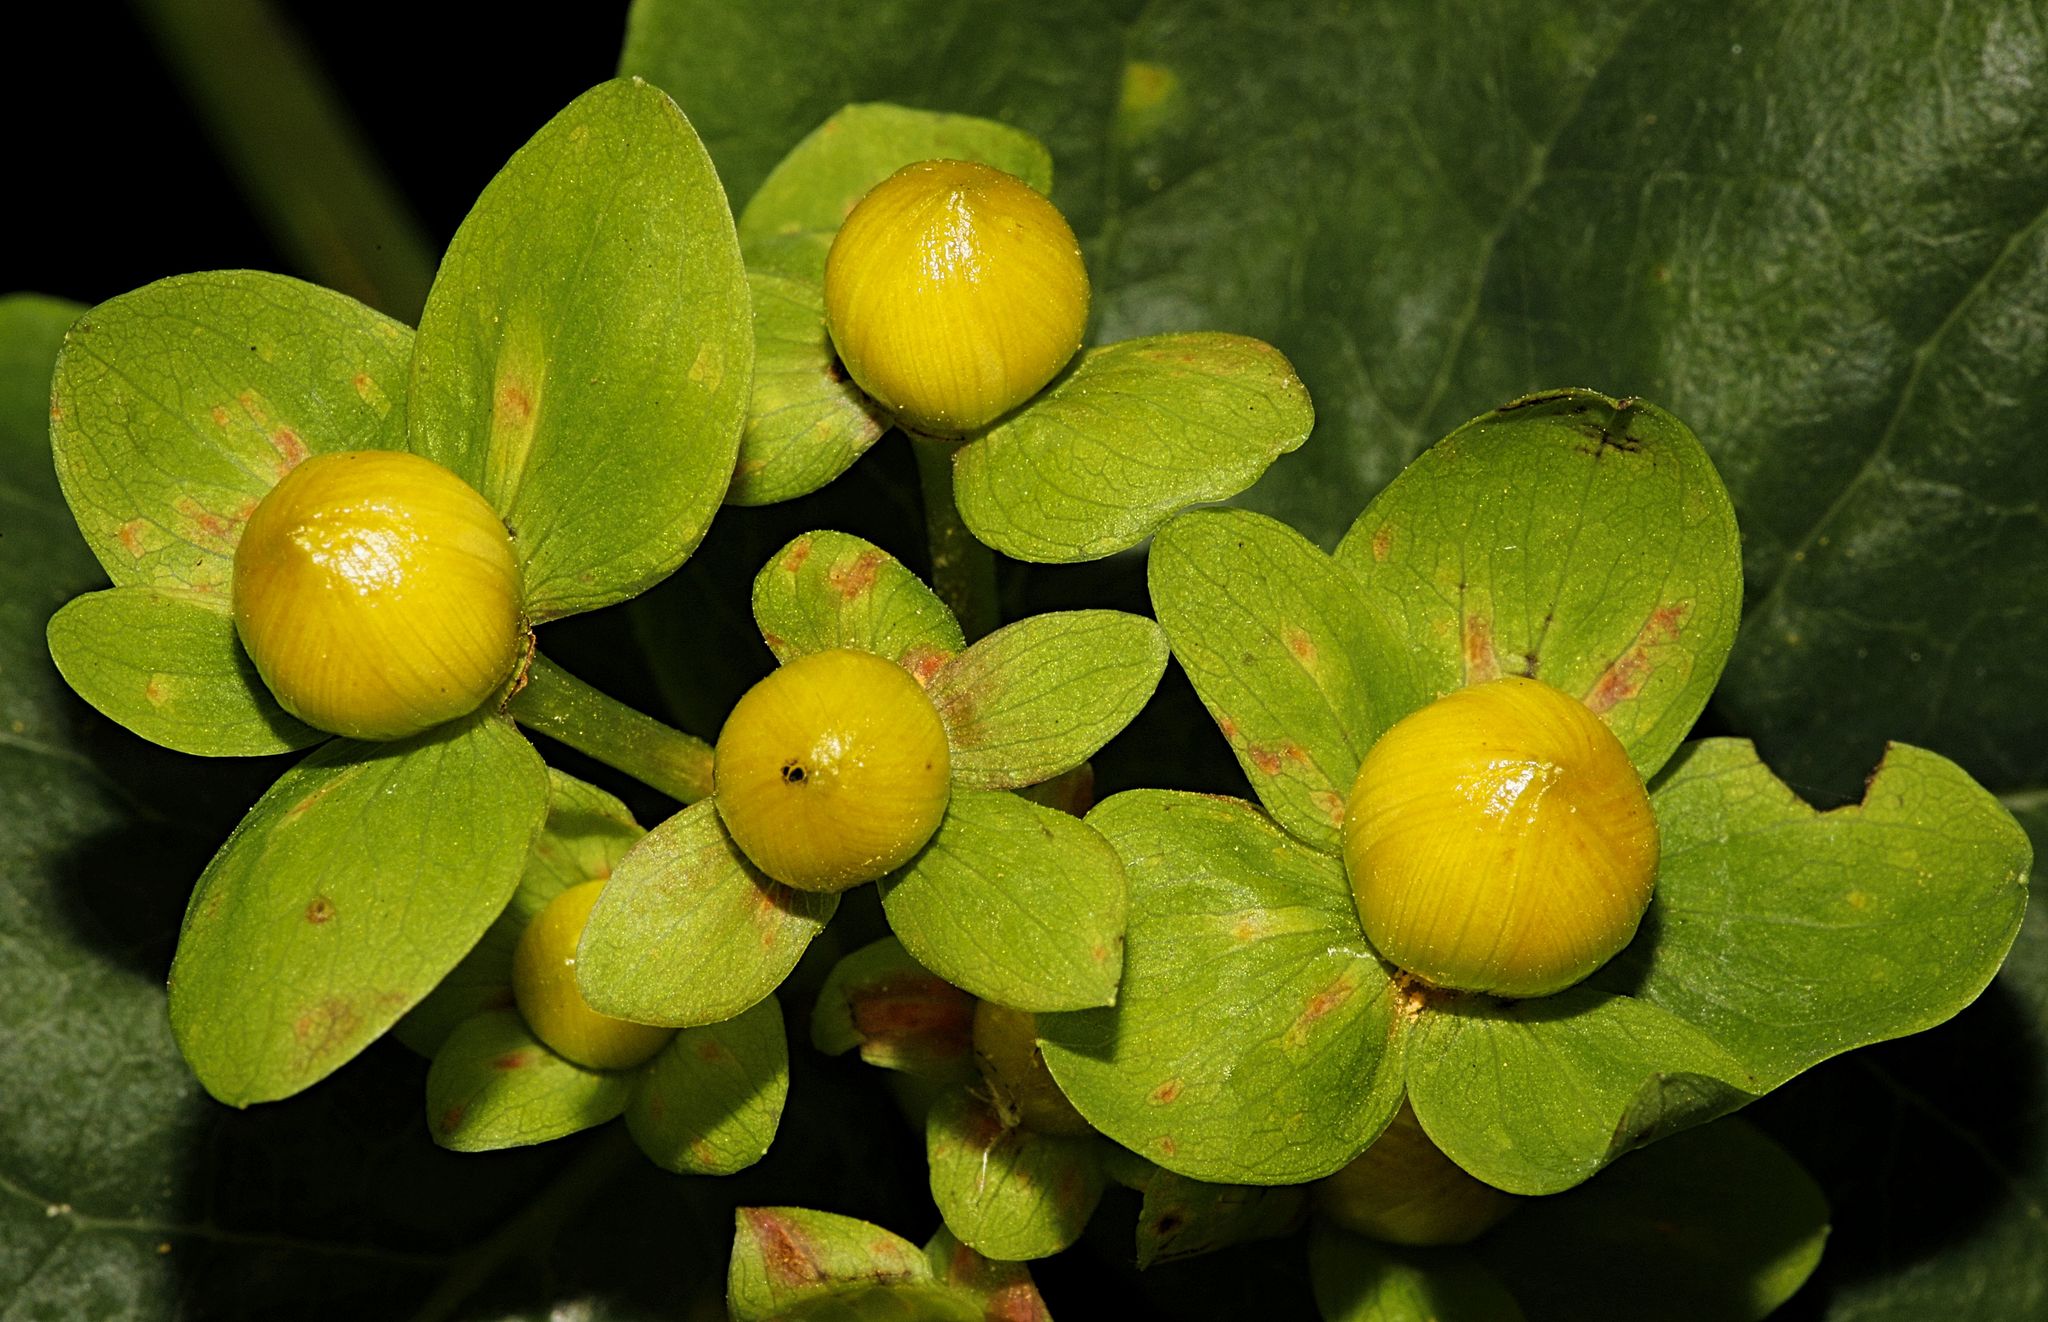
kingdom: Plantae
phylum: Tracheophyta
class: Magnoliopsida
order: Malpighiales
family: Hypericaceae
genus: Hypericum
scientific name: Hypericum androsaemum
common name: Sweet-amber
